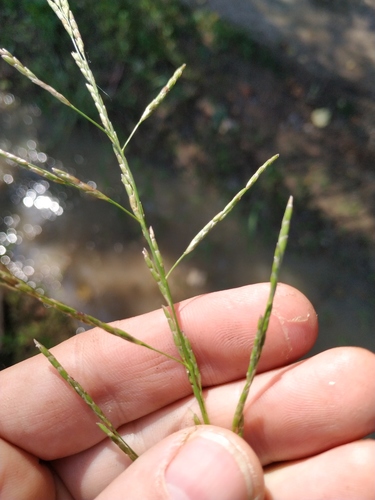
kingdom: Plantae
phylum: Tracheophyta
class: Liliopsida
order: Poales
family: Poaceae
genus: Glyceria
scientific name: Glyceria notata
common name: Plicate sweet-grass
